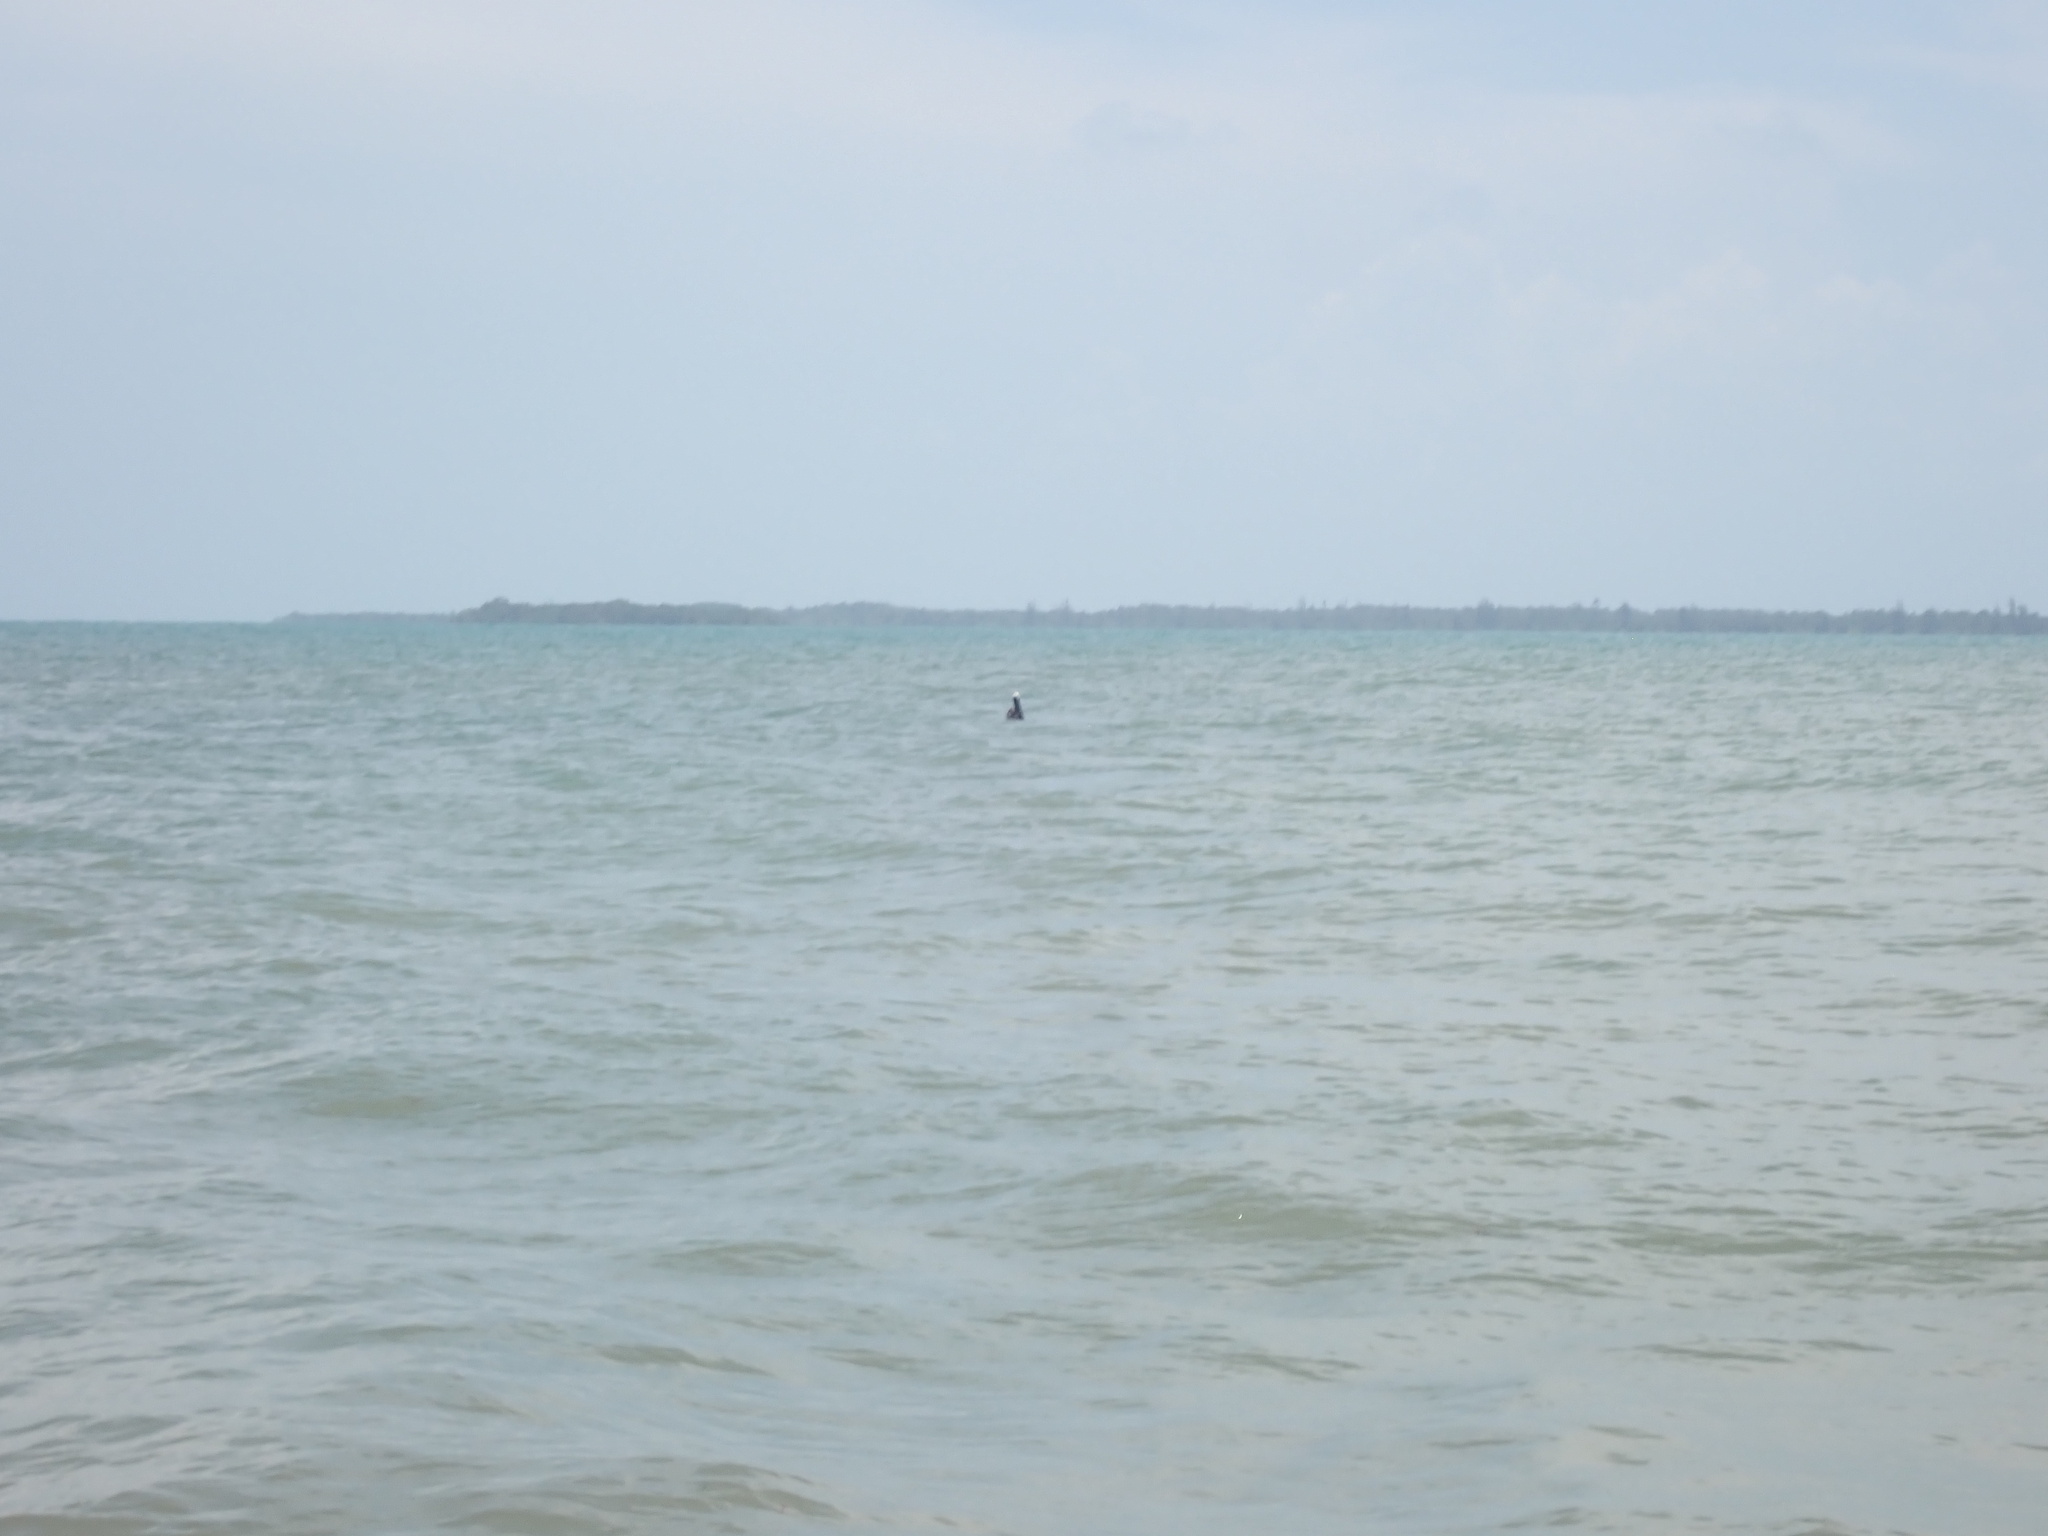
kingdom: Animalia
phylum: Chordata
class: Aves
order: Pelecaniformes
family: Pelecanidae
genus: Pelecanus
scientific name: Pelecanus occidentalis
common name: Brown pelican
